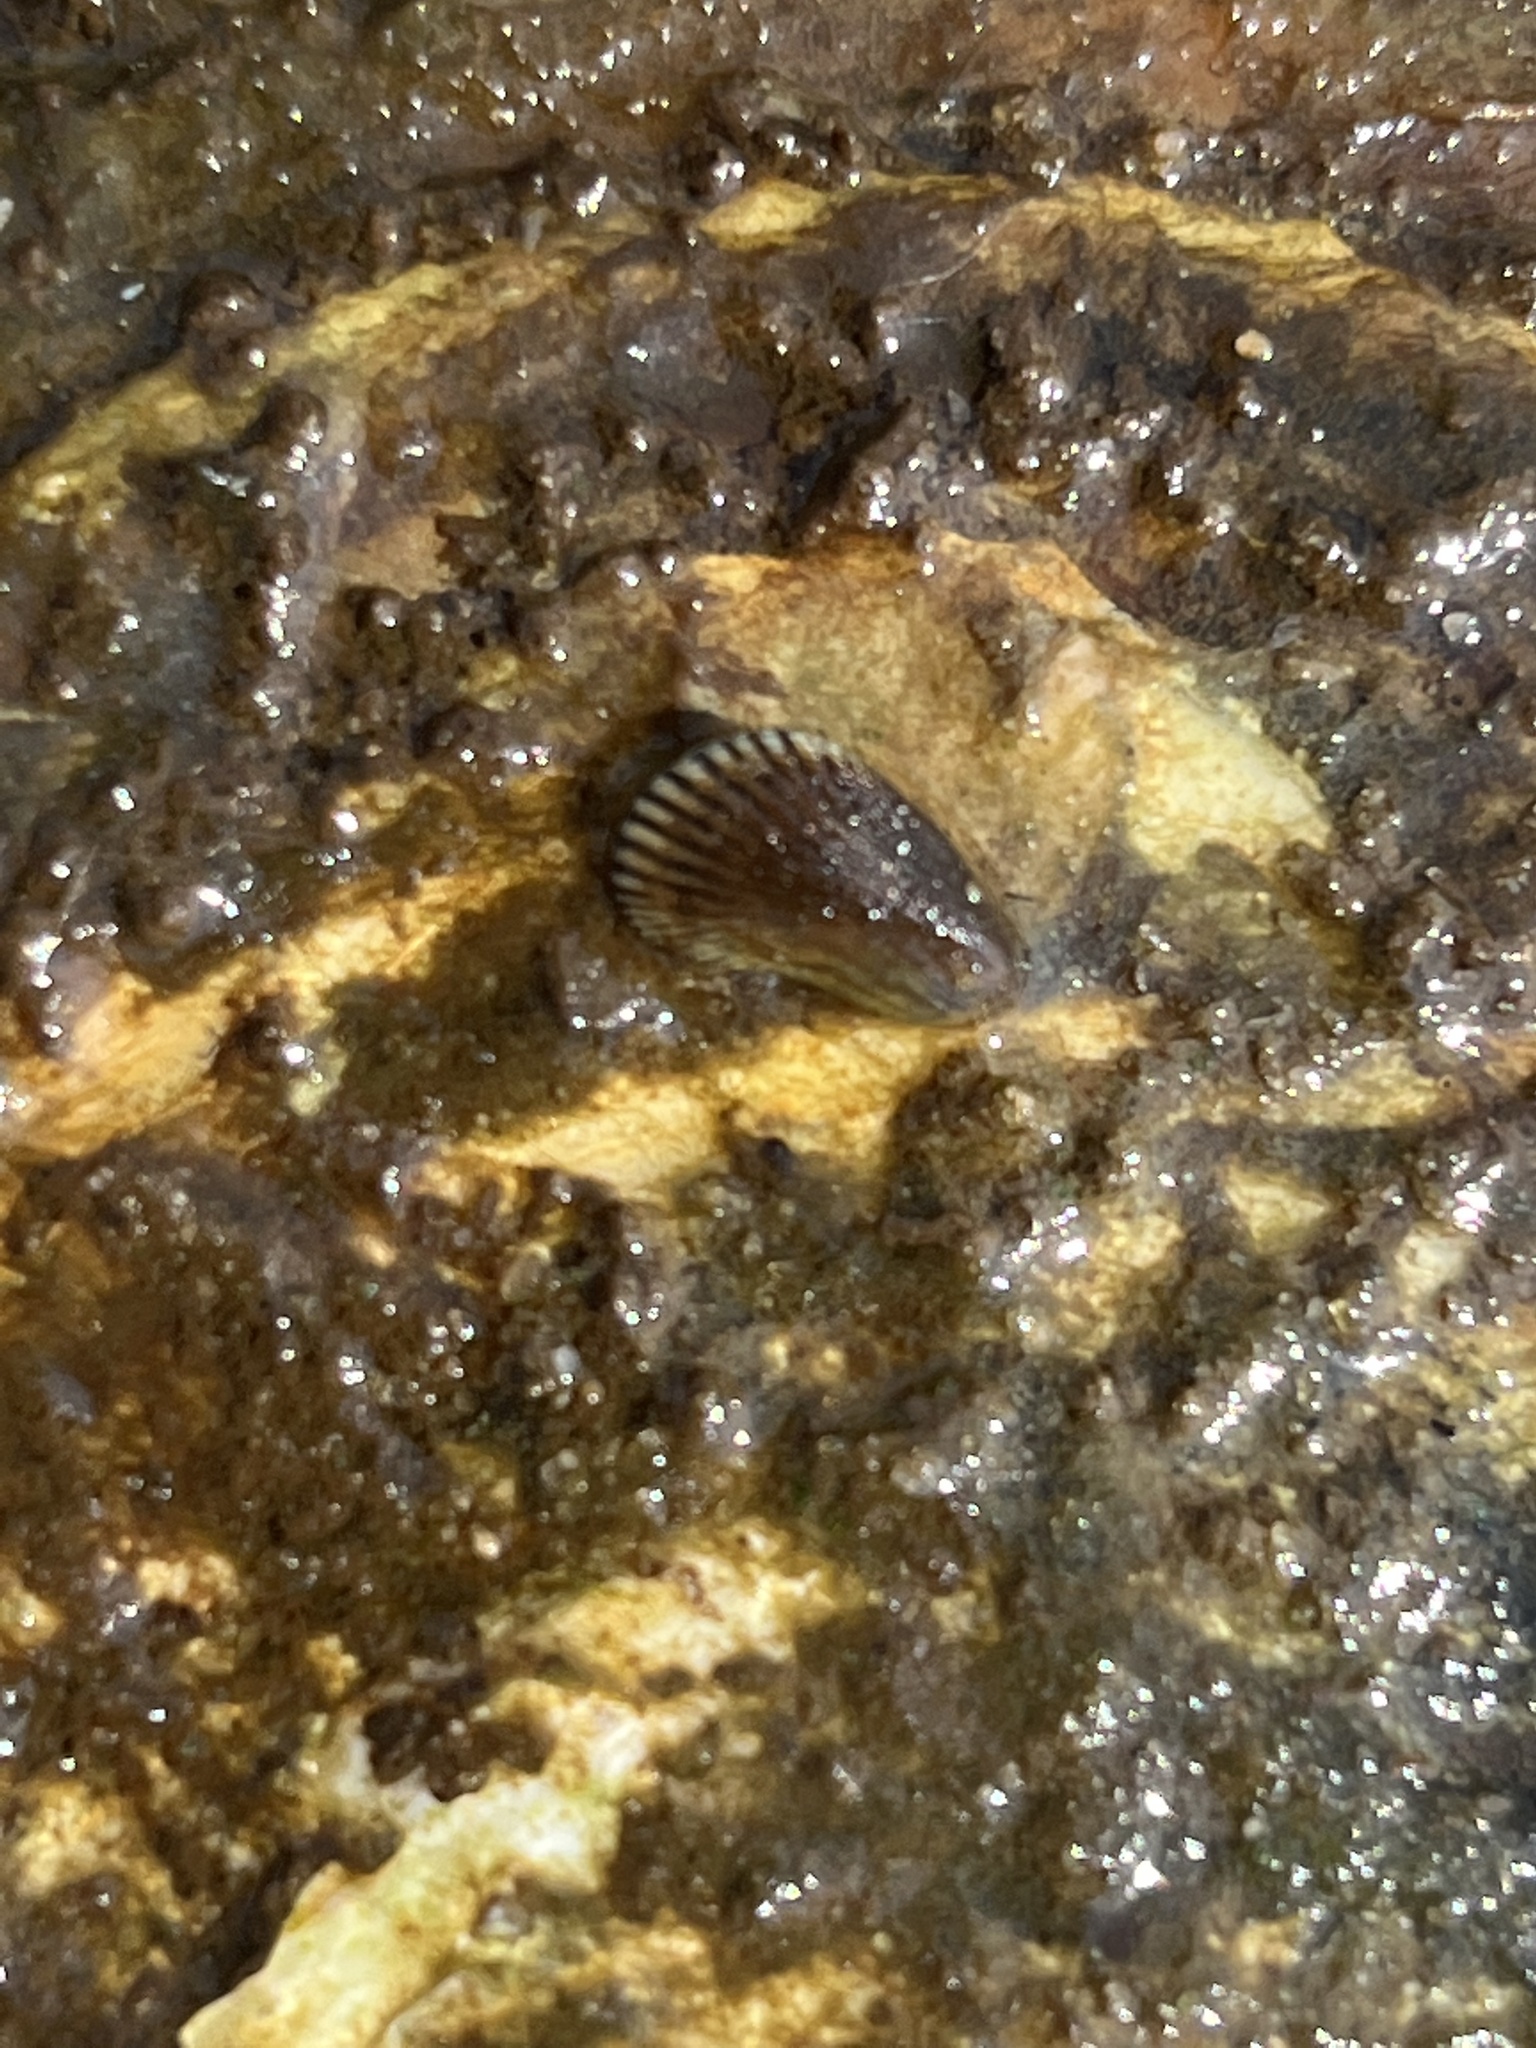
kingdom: Animalia
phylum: Mollusca
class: Bivalvia
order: Mytilida
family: Mytilidae
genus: Ischadium
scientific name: Ischadium recurvum
